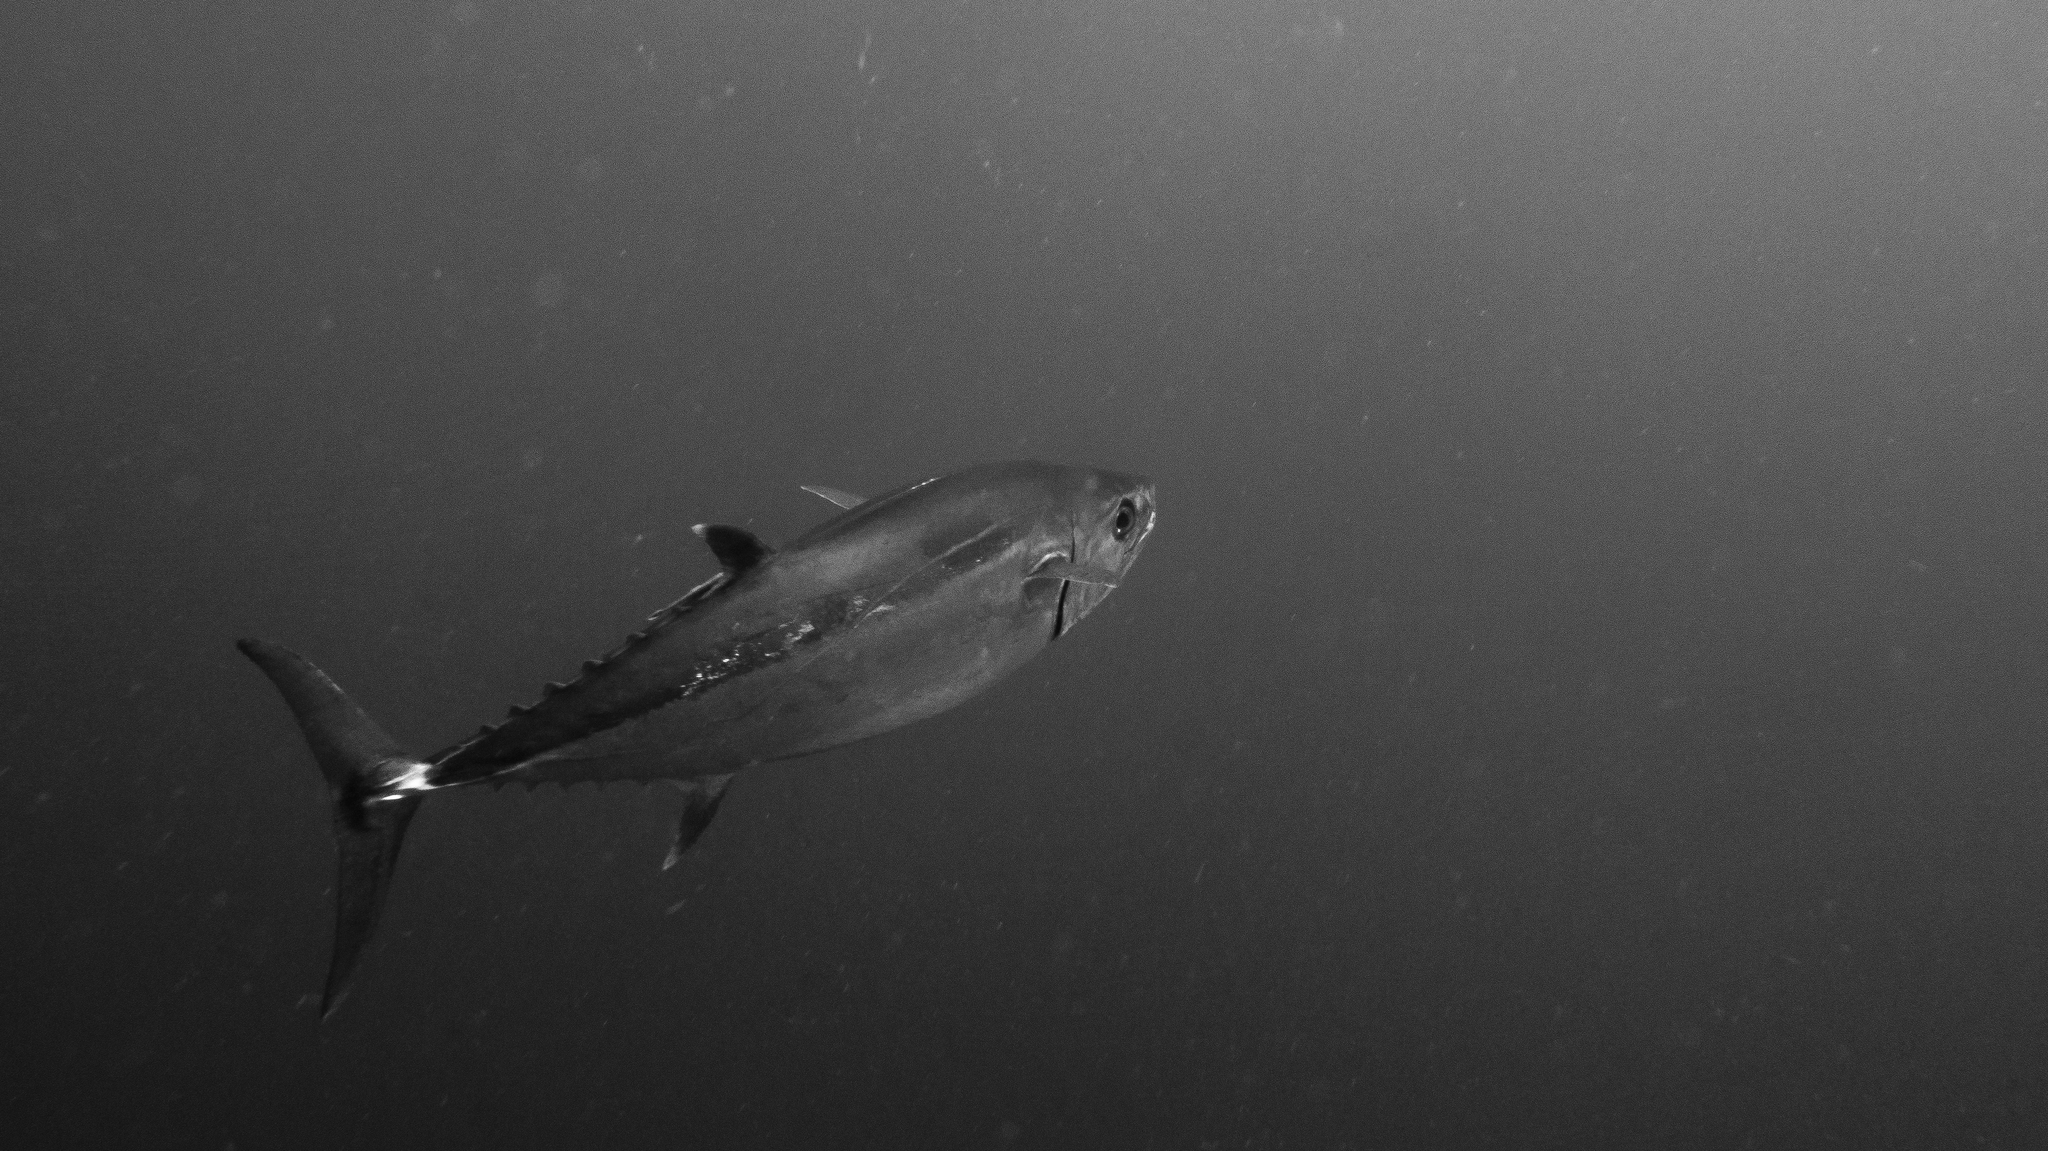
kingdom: Animalia
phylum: Chordata
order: Perciformes
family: Scombridae
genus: Gymnosarda
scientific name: Gymnosarda unicolor
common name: Dogtooth tuna
